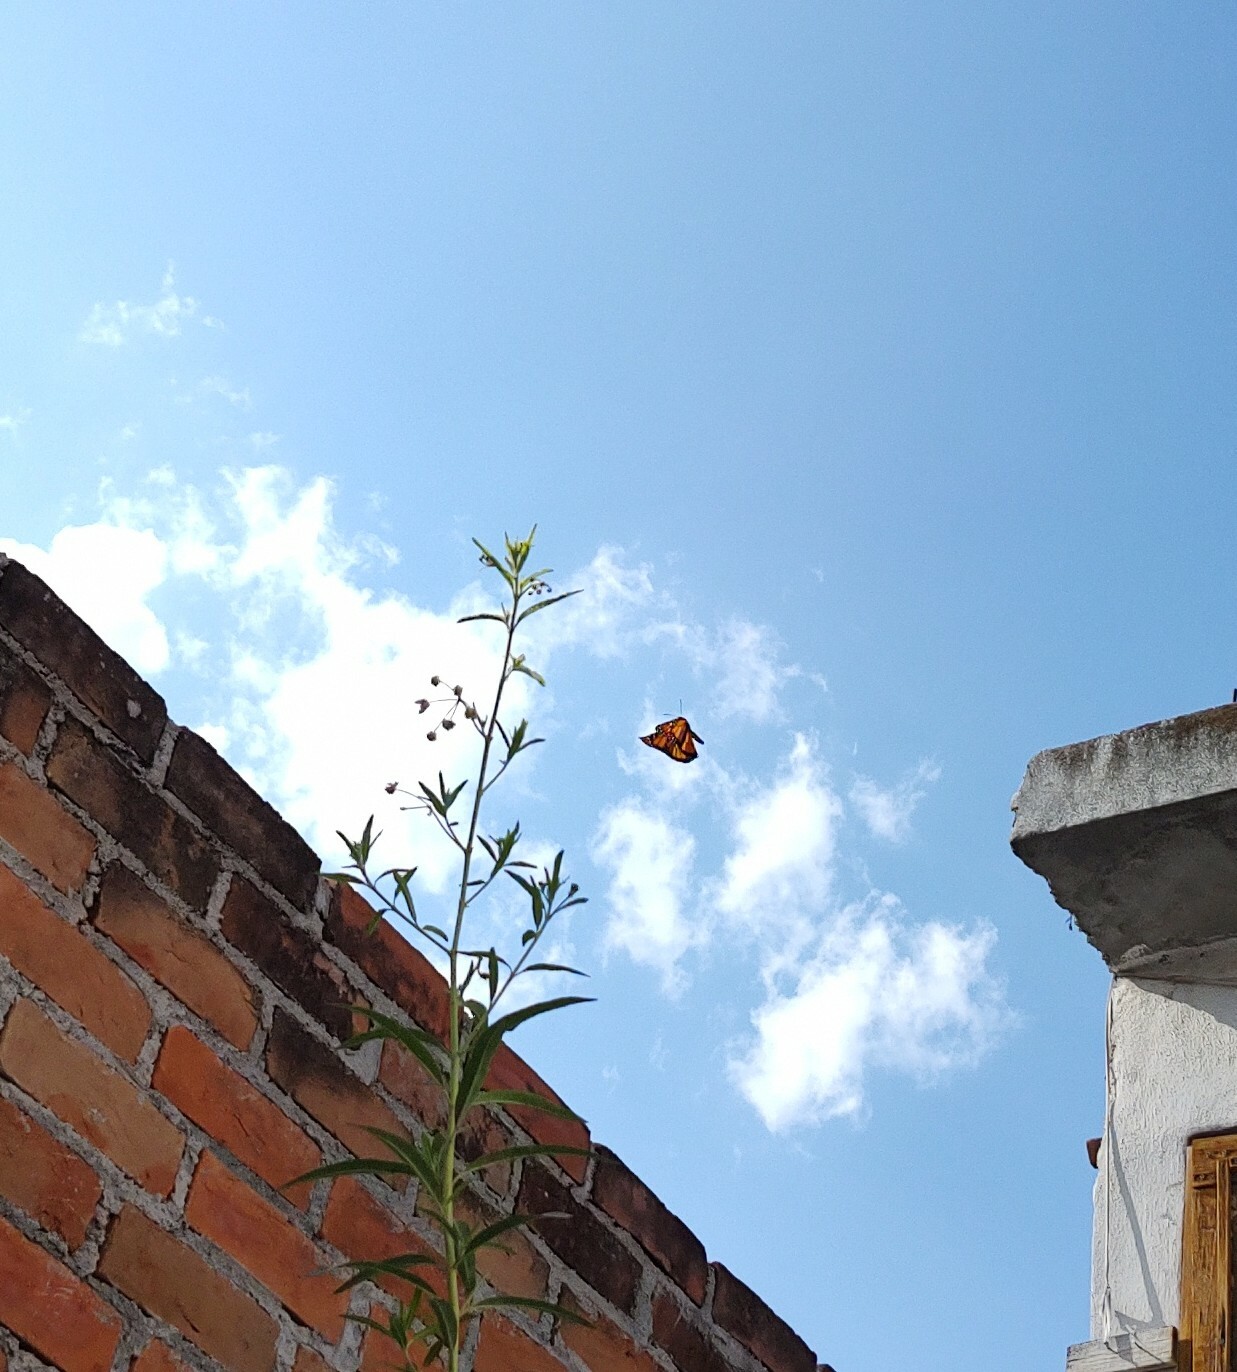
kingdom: Animalia
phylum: Arthropoda
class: Insecta
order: Lepidoptera
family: Nymphalidae
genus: Danaus
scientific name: Danaus plexippus
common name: Monarch
